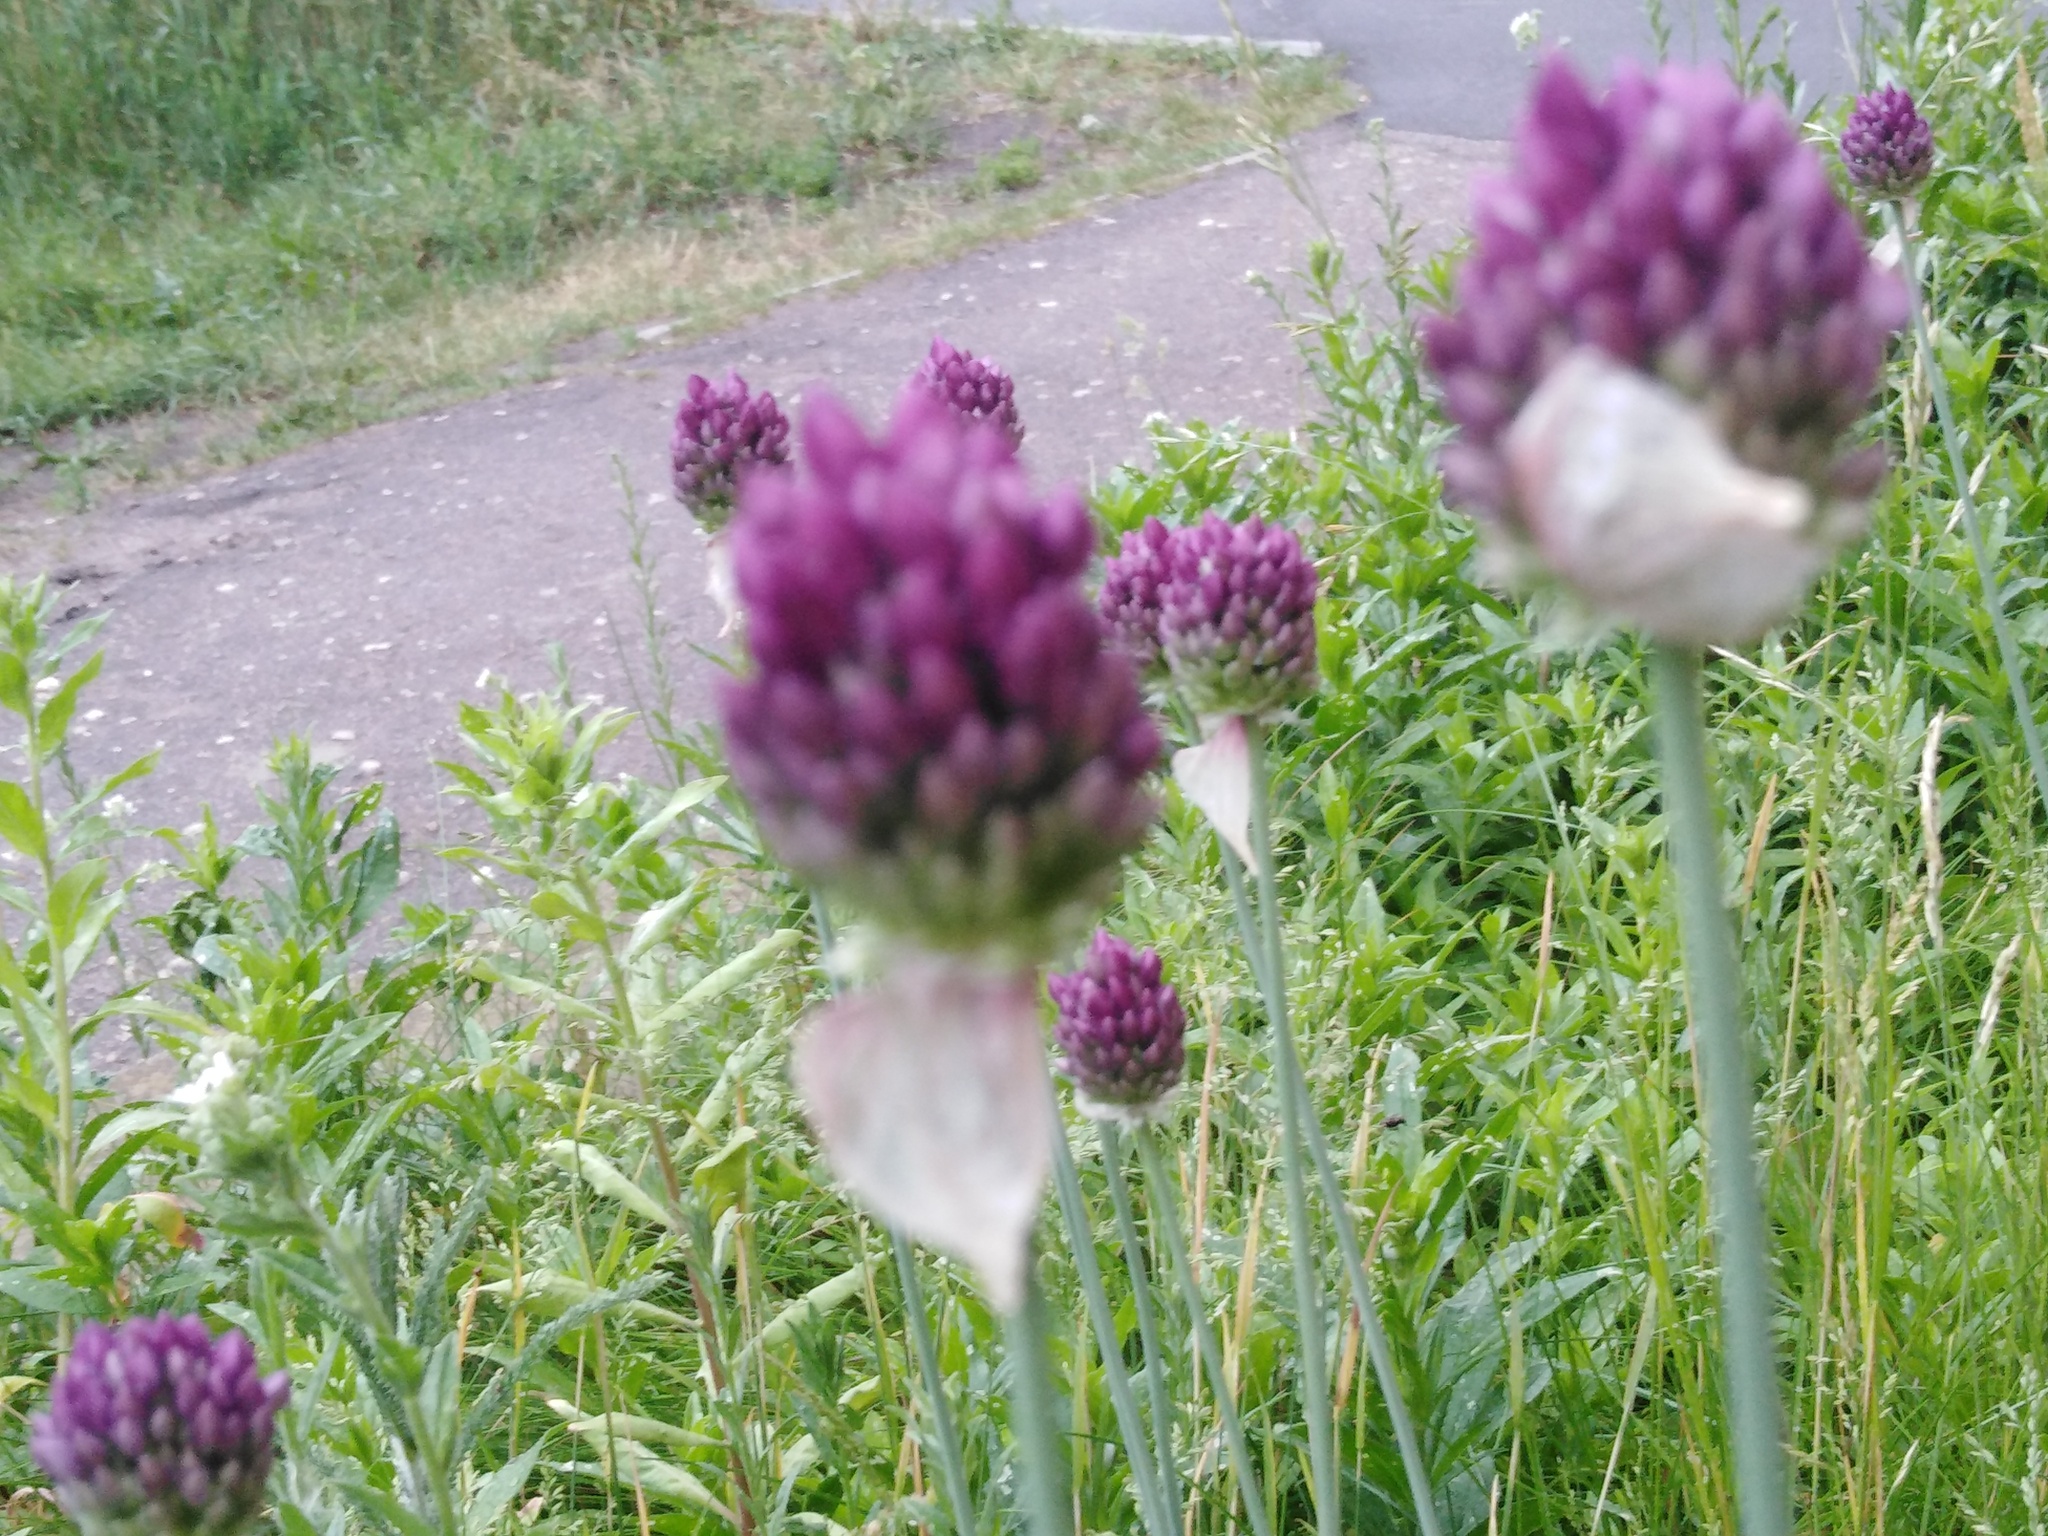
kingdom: Plantae
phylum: Tracheophyta
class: Liliopsida
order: Asparagales
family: Amaryllidaceae
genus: Allium
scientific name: Allium rotundum
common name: Sand leek
